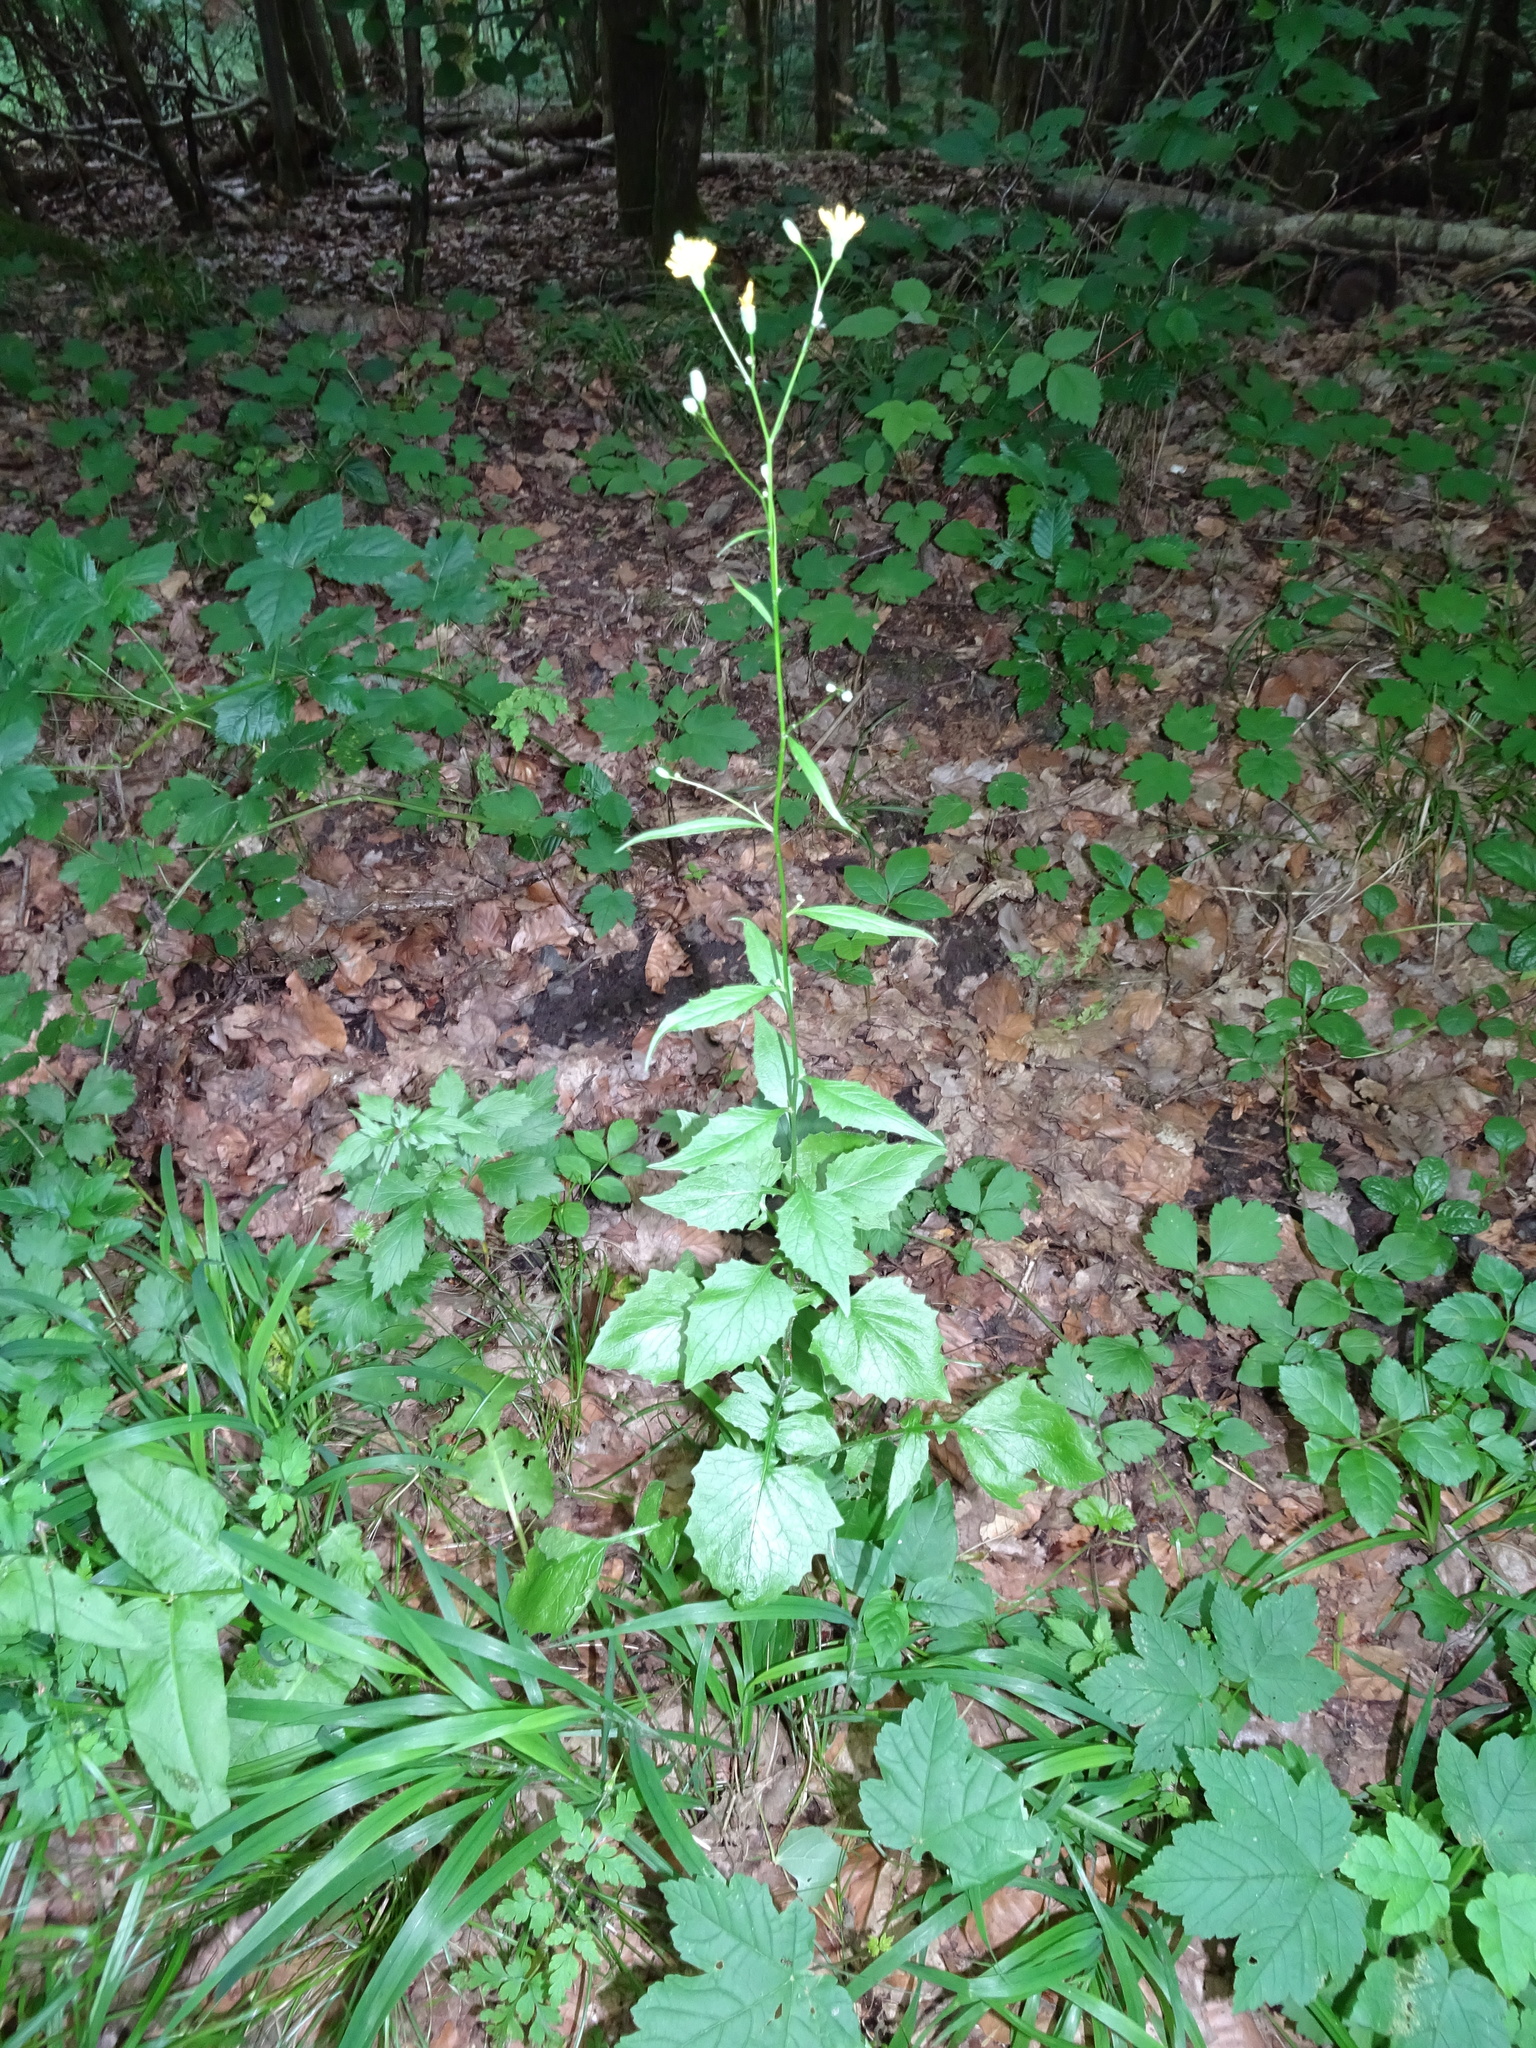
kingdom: Plantae
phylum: Tracheophyta
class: Magnoliopsida
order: Asterales
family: Asteraceae
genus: Lapsana
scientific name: Lapsana communis
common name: Nipplewort
